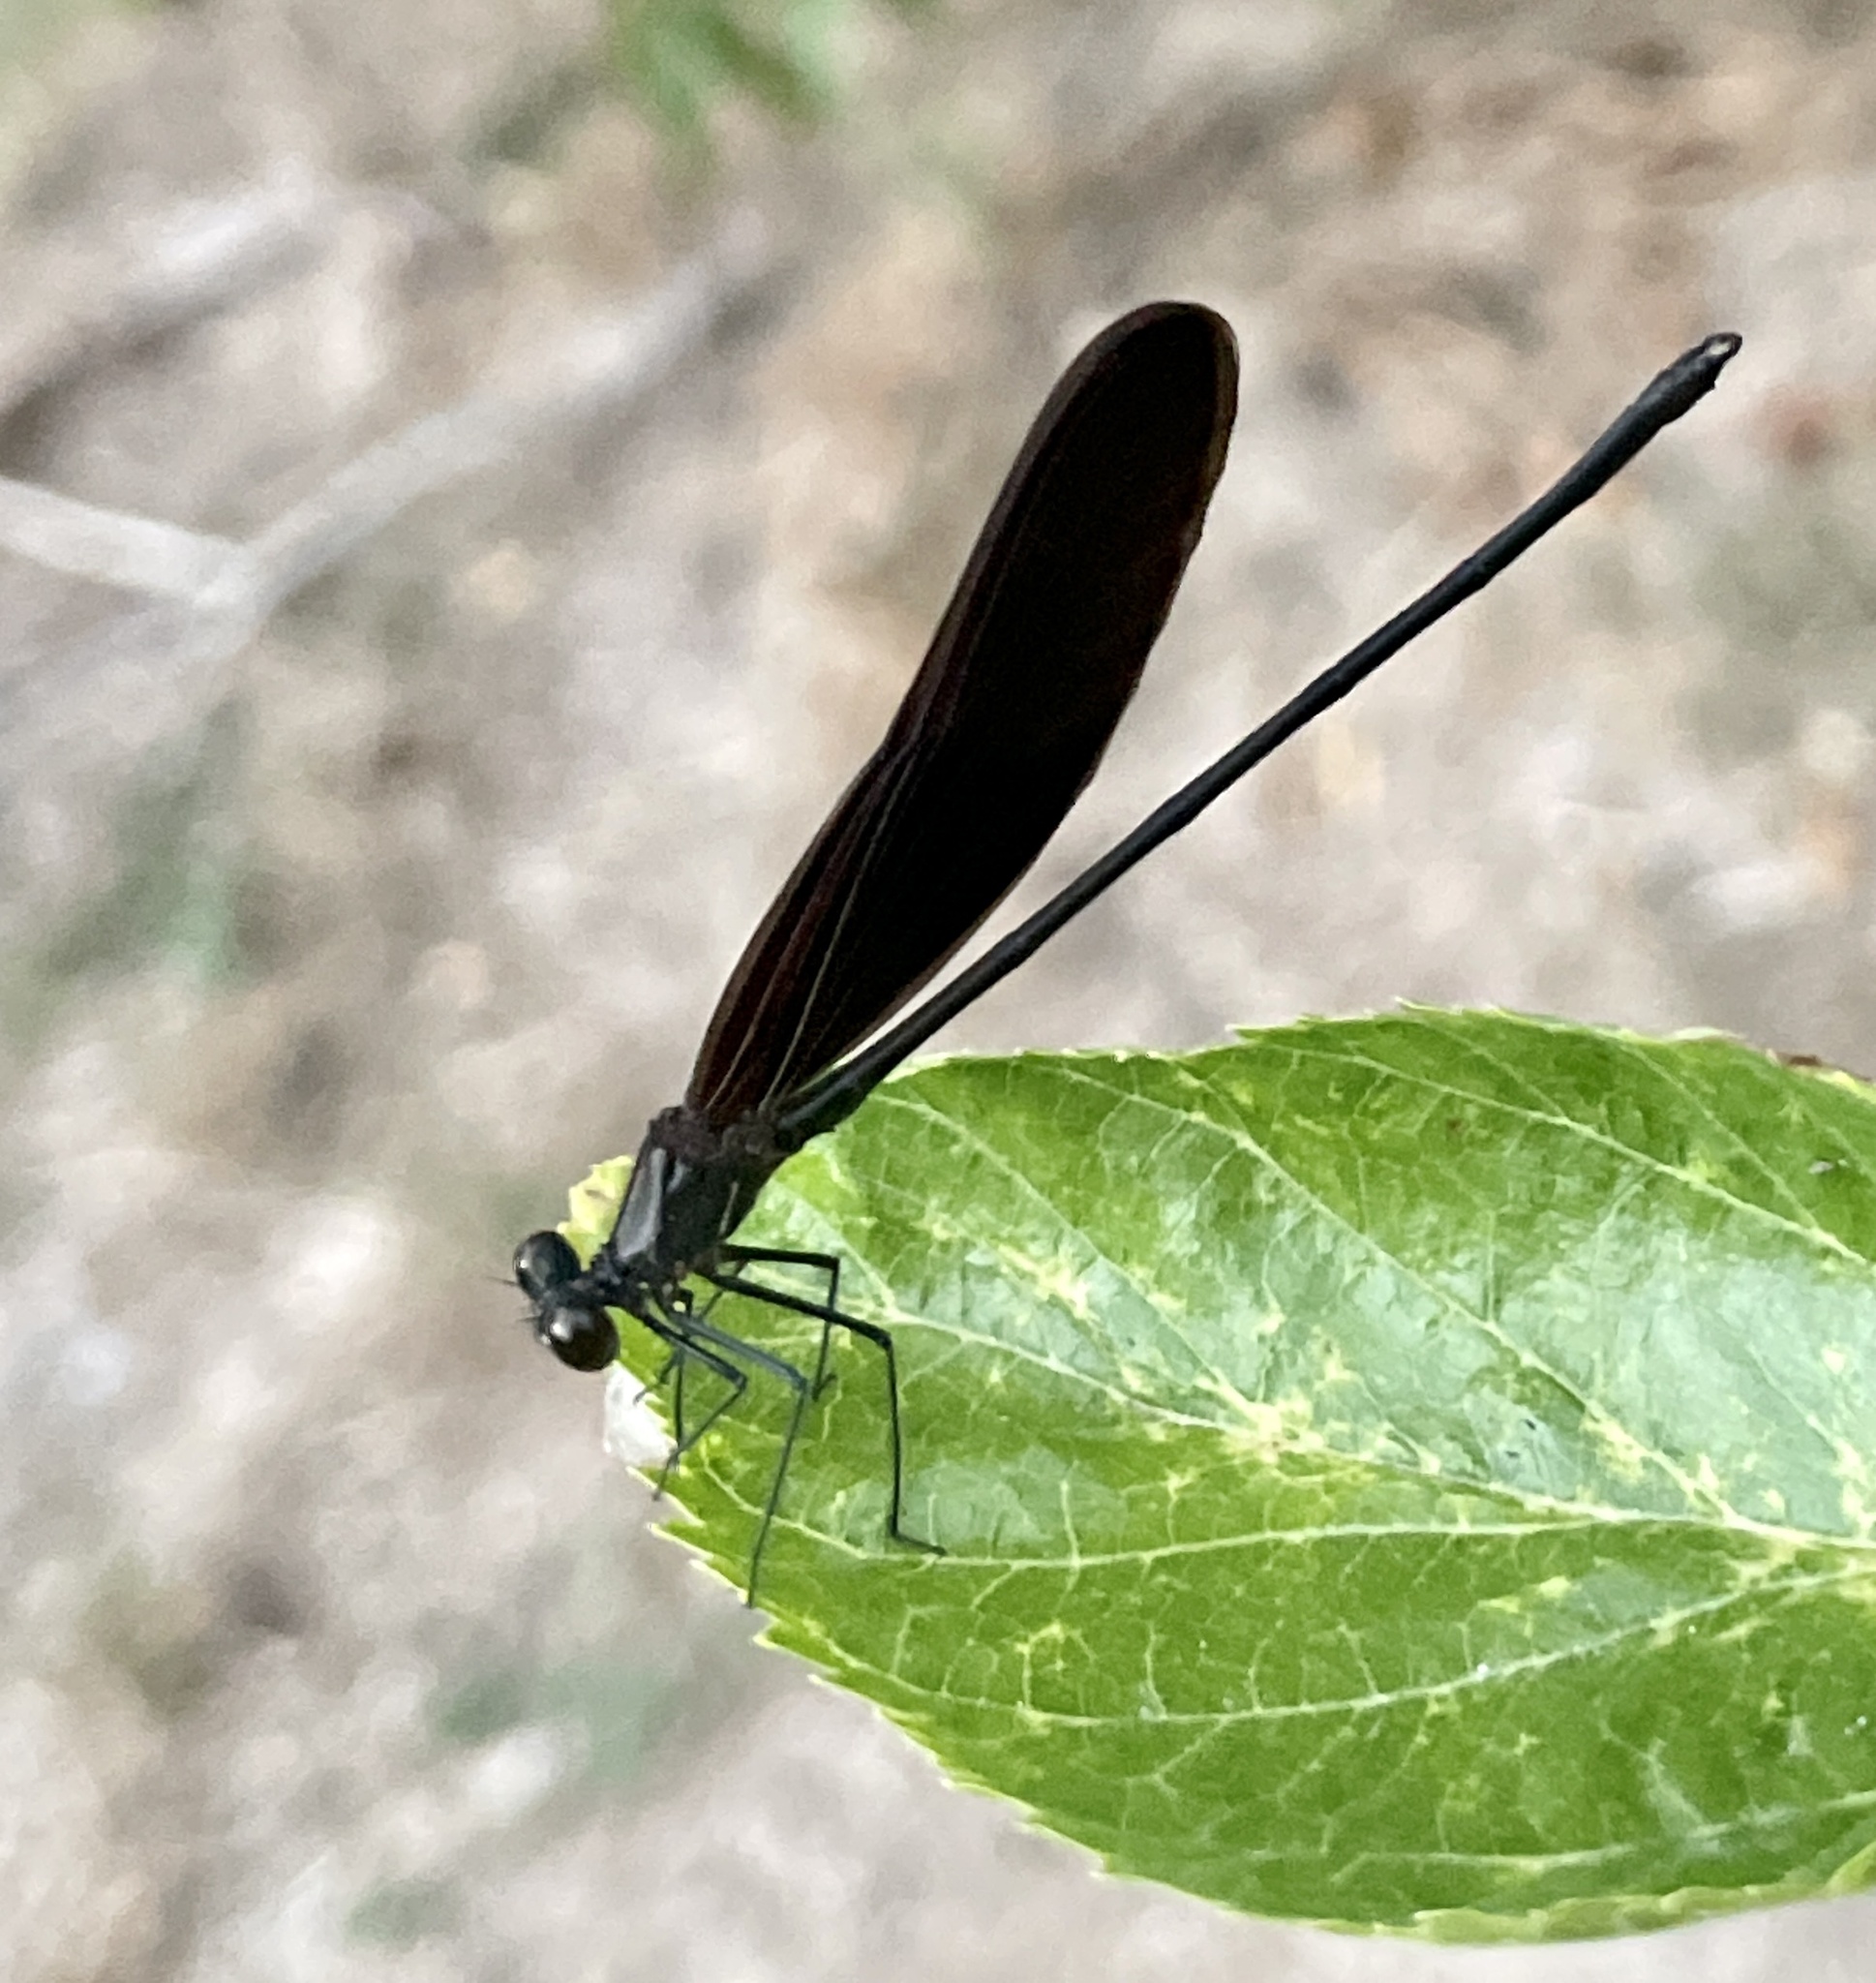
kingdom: Animalia
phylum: Arthropoda
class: Insecta
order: Odonata
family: Calopterygidae
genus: Hetaerina
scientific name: Hetaerina titia
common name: Smoky rubyspot
